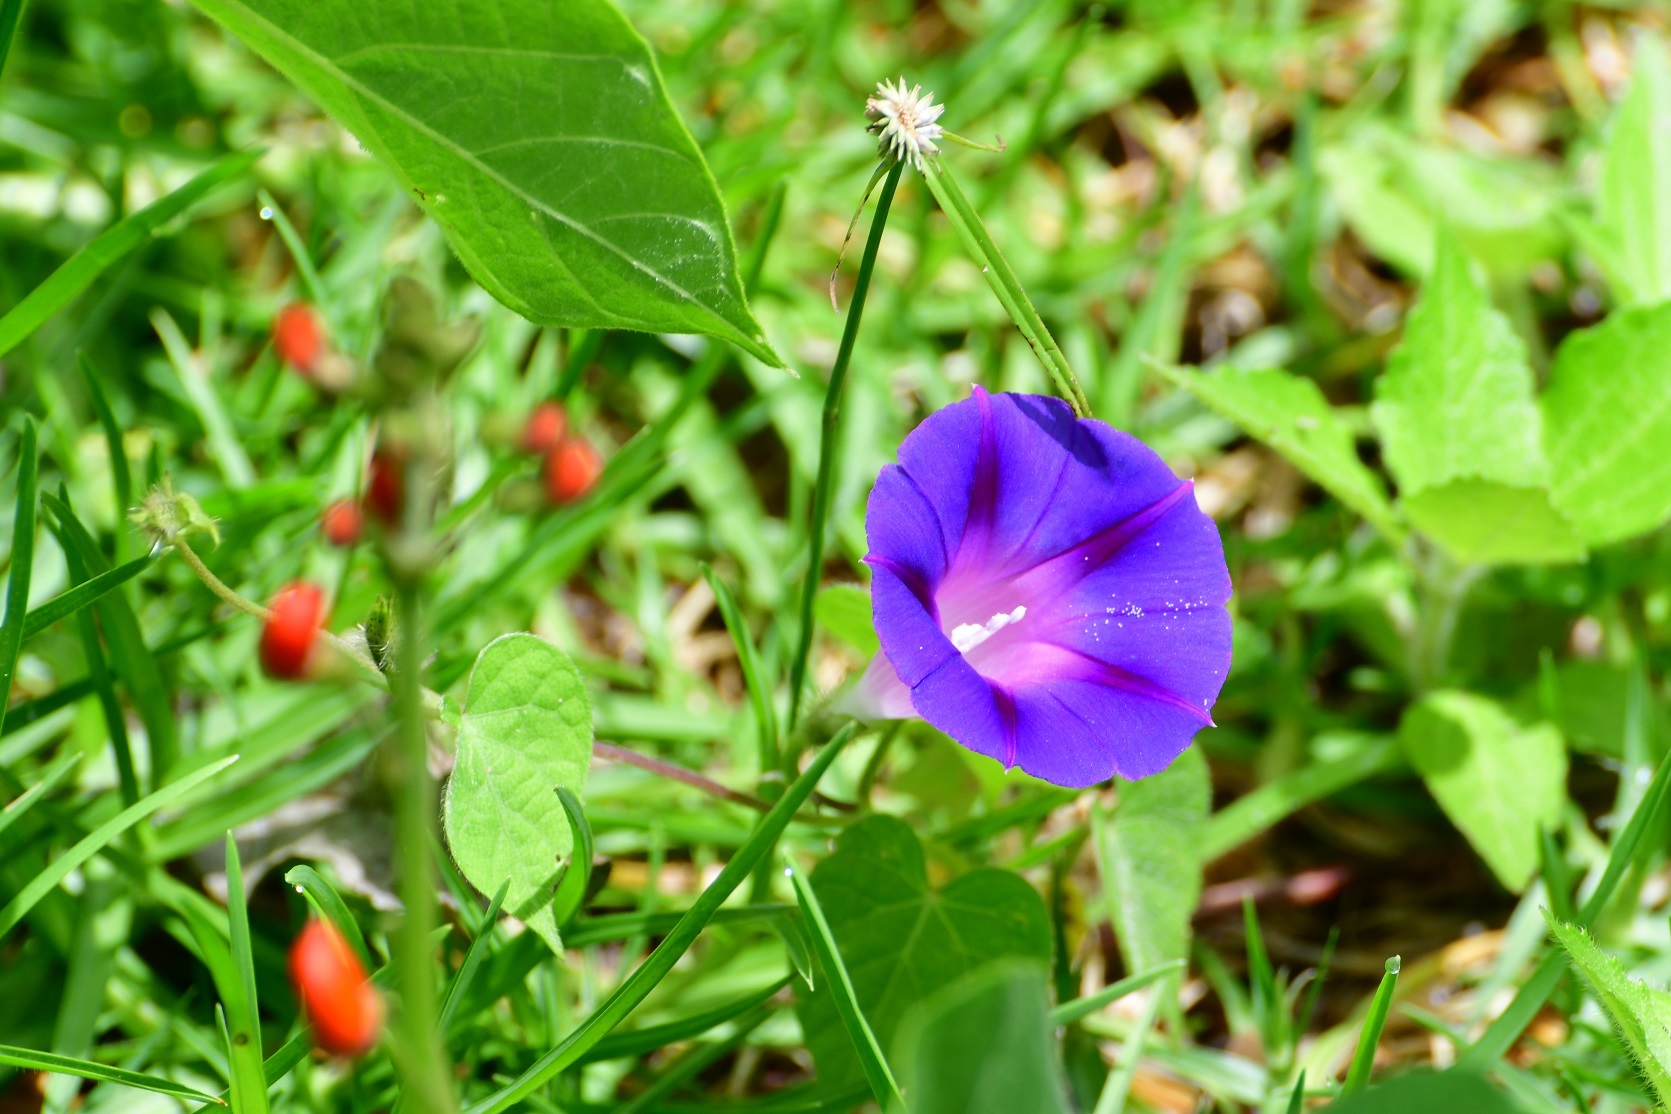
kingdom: Plantae
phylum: Tracheophyta
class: Magnoliopsida
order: Solanales
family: Convolvulaceae
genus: Ipomoea
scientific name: Ipomoea purpurea
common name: Common morning-glory
